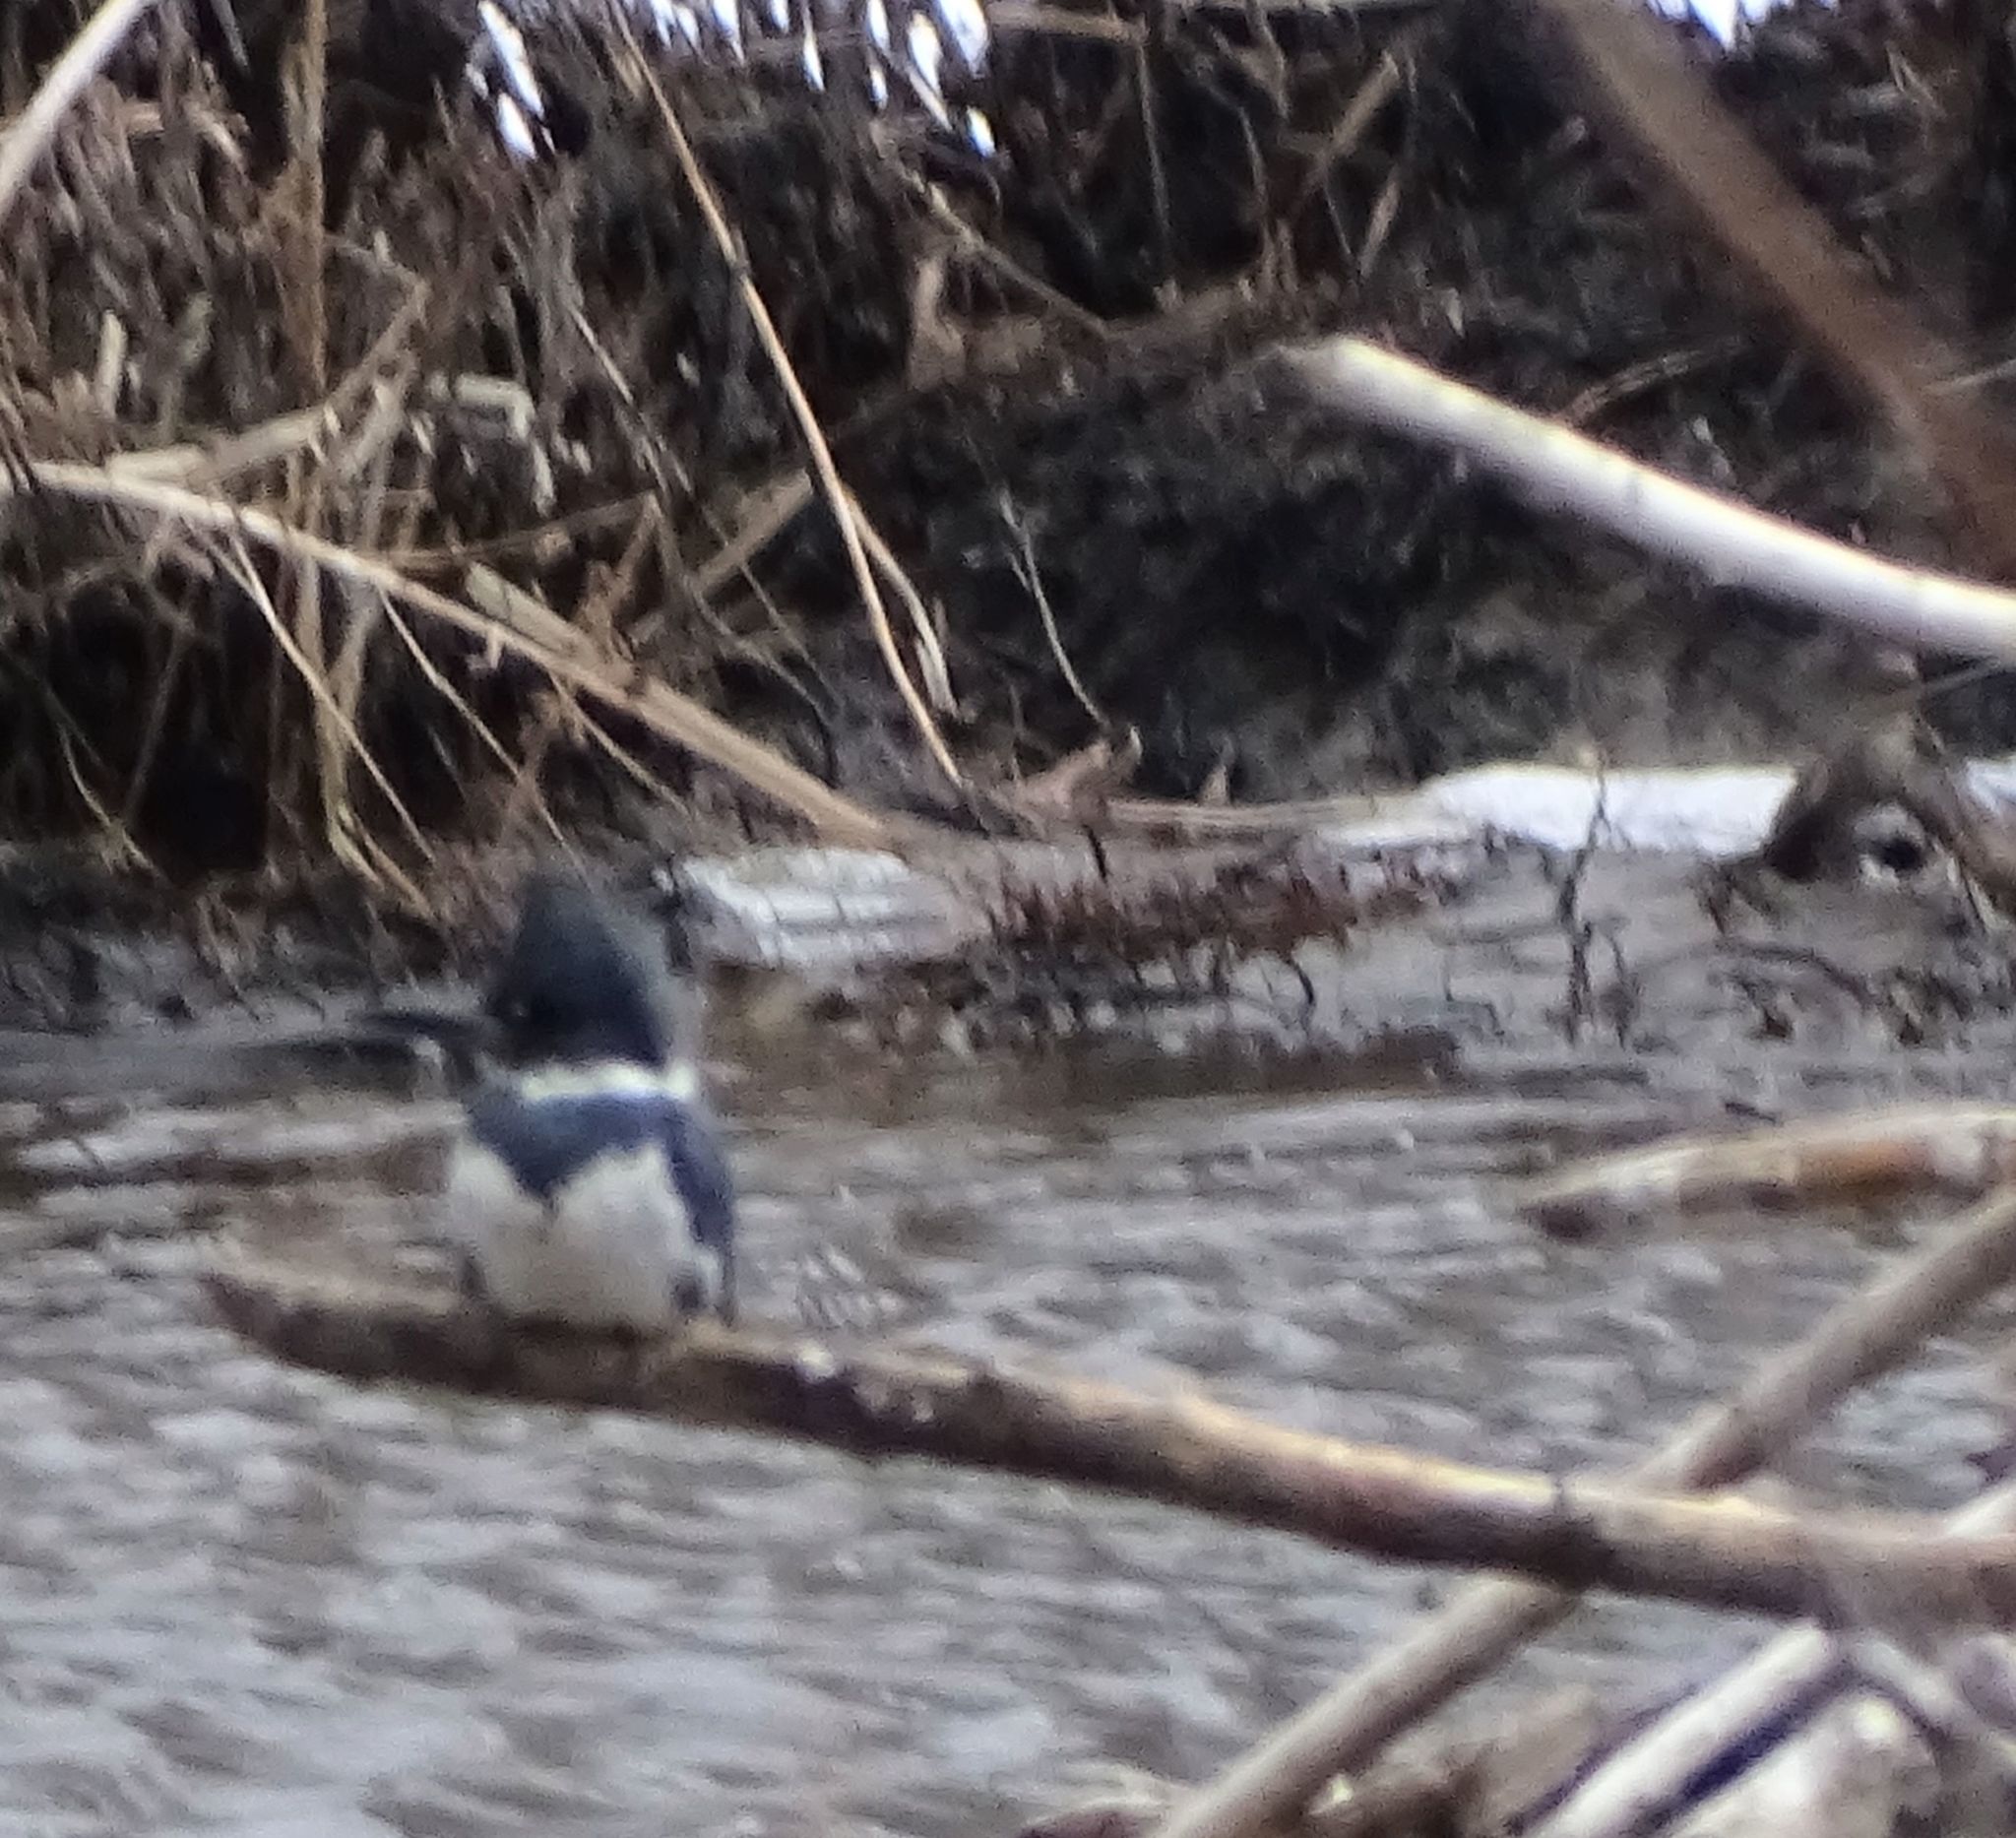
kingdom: Animalia
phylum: Chordata
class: Aves
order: Coraciiformes
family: Alcedinidae
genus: Megaceryle
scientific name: Megaceryle alcyon
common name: Belted kingfisher
